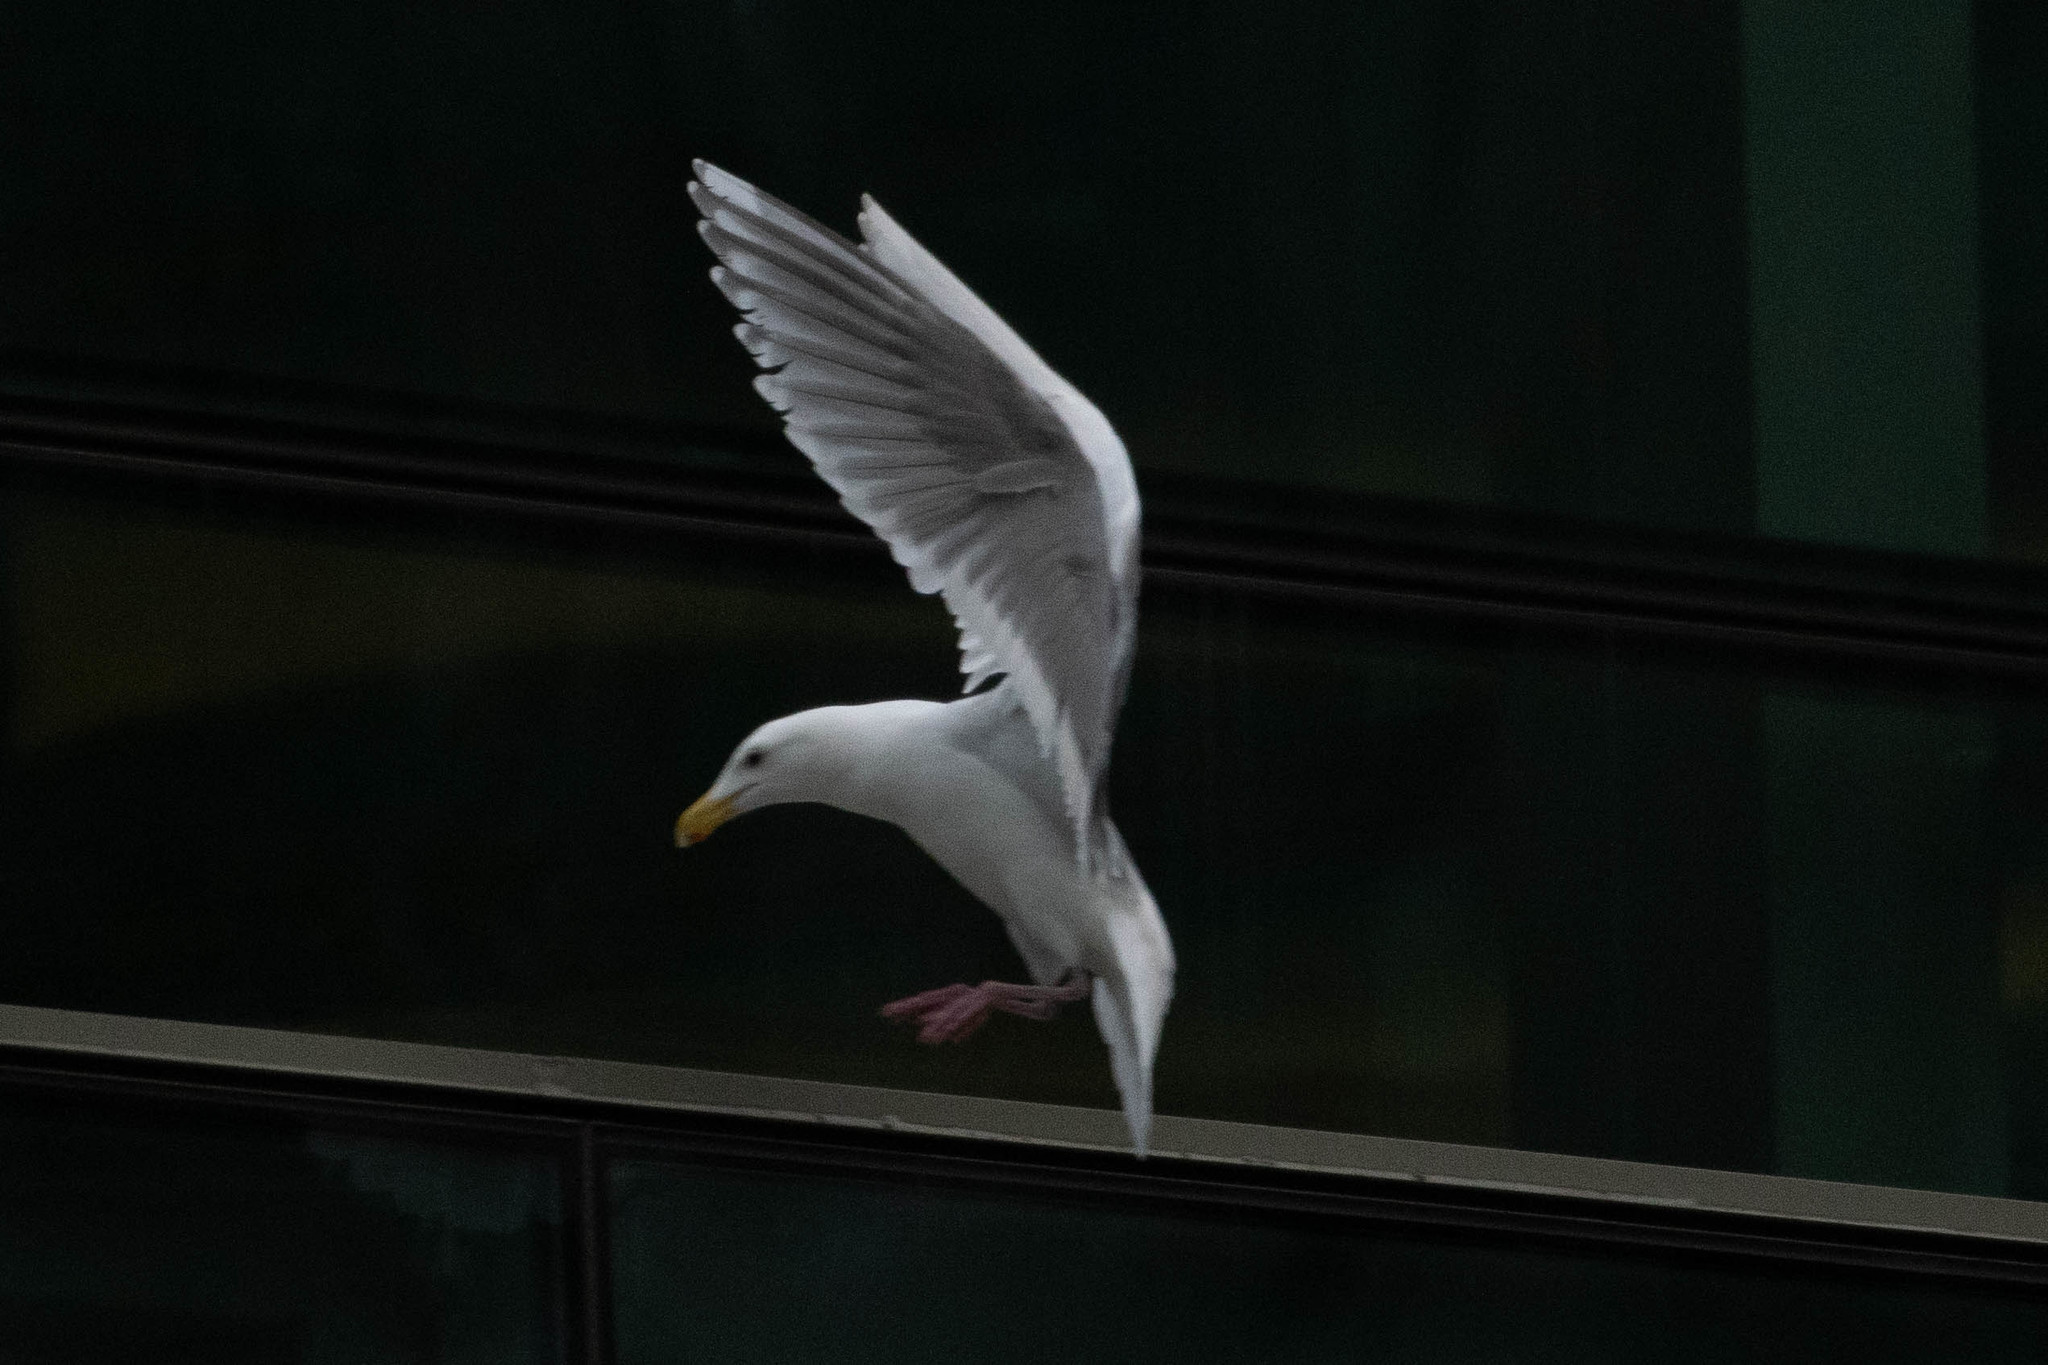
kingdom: Animalia
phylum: Chordata
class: Aves
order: Charadriiformes
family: Laridae
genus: Larus
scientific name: Larus glaucescens
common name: Glaucous-winged gull
